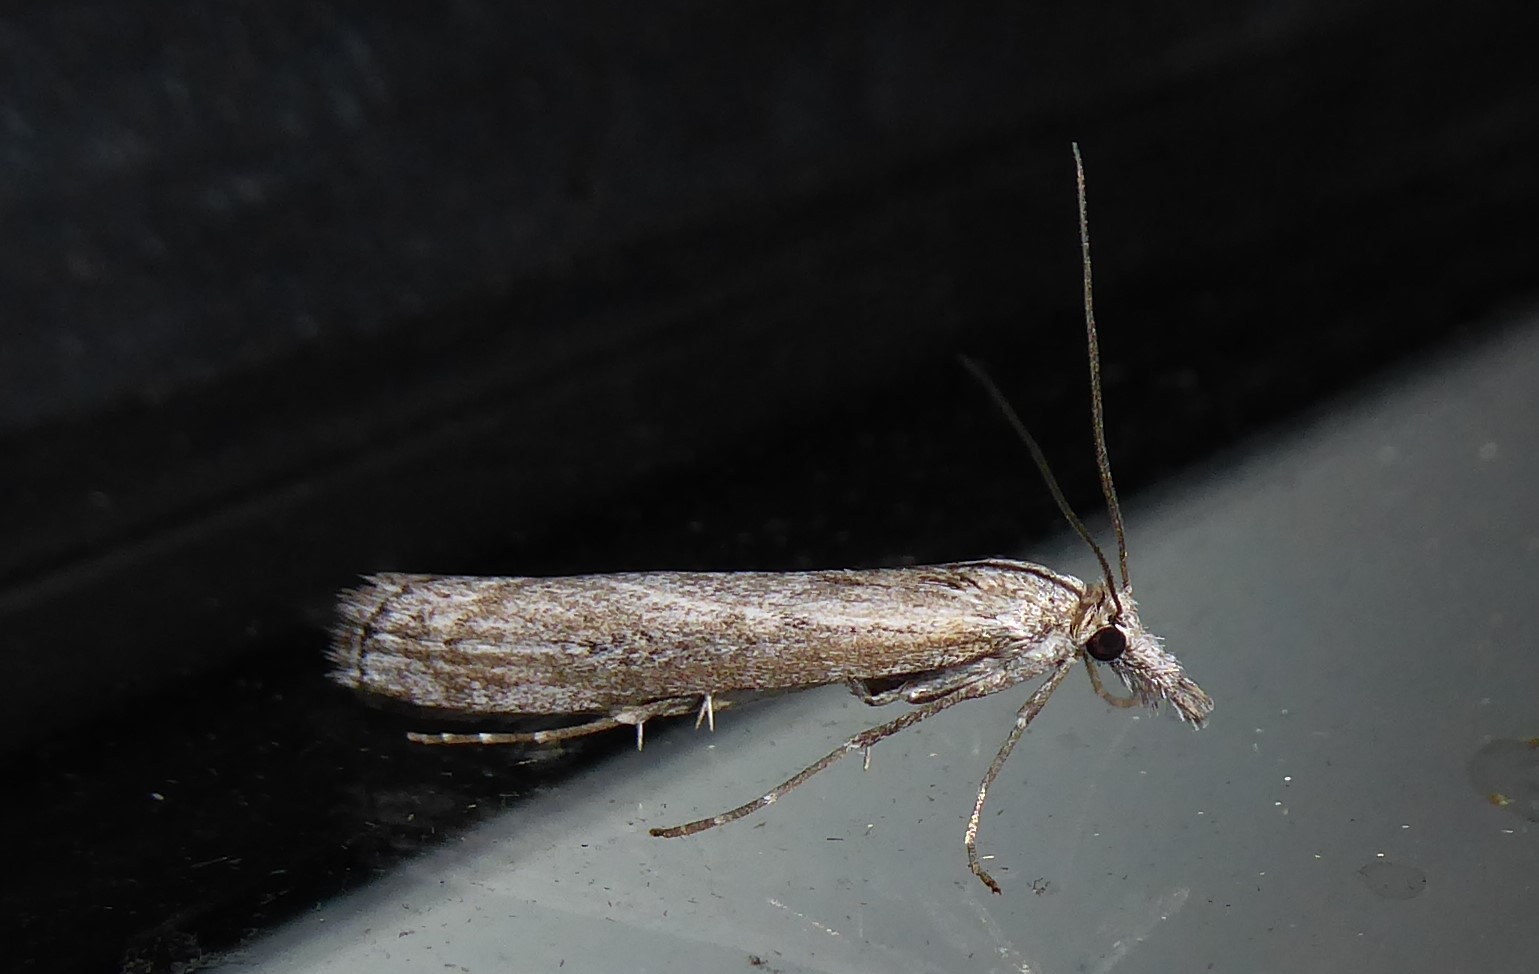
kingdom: Animalia
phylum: Arthropoda
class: Insecta
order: Lepidoptera
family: Crambidae
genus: Orocrambus
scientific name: Orocrambus cyclopicus
